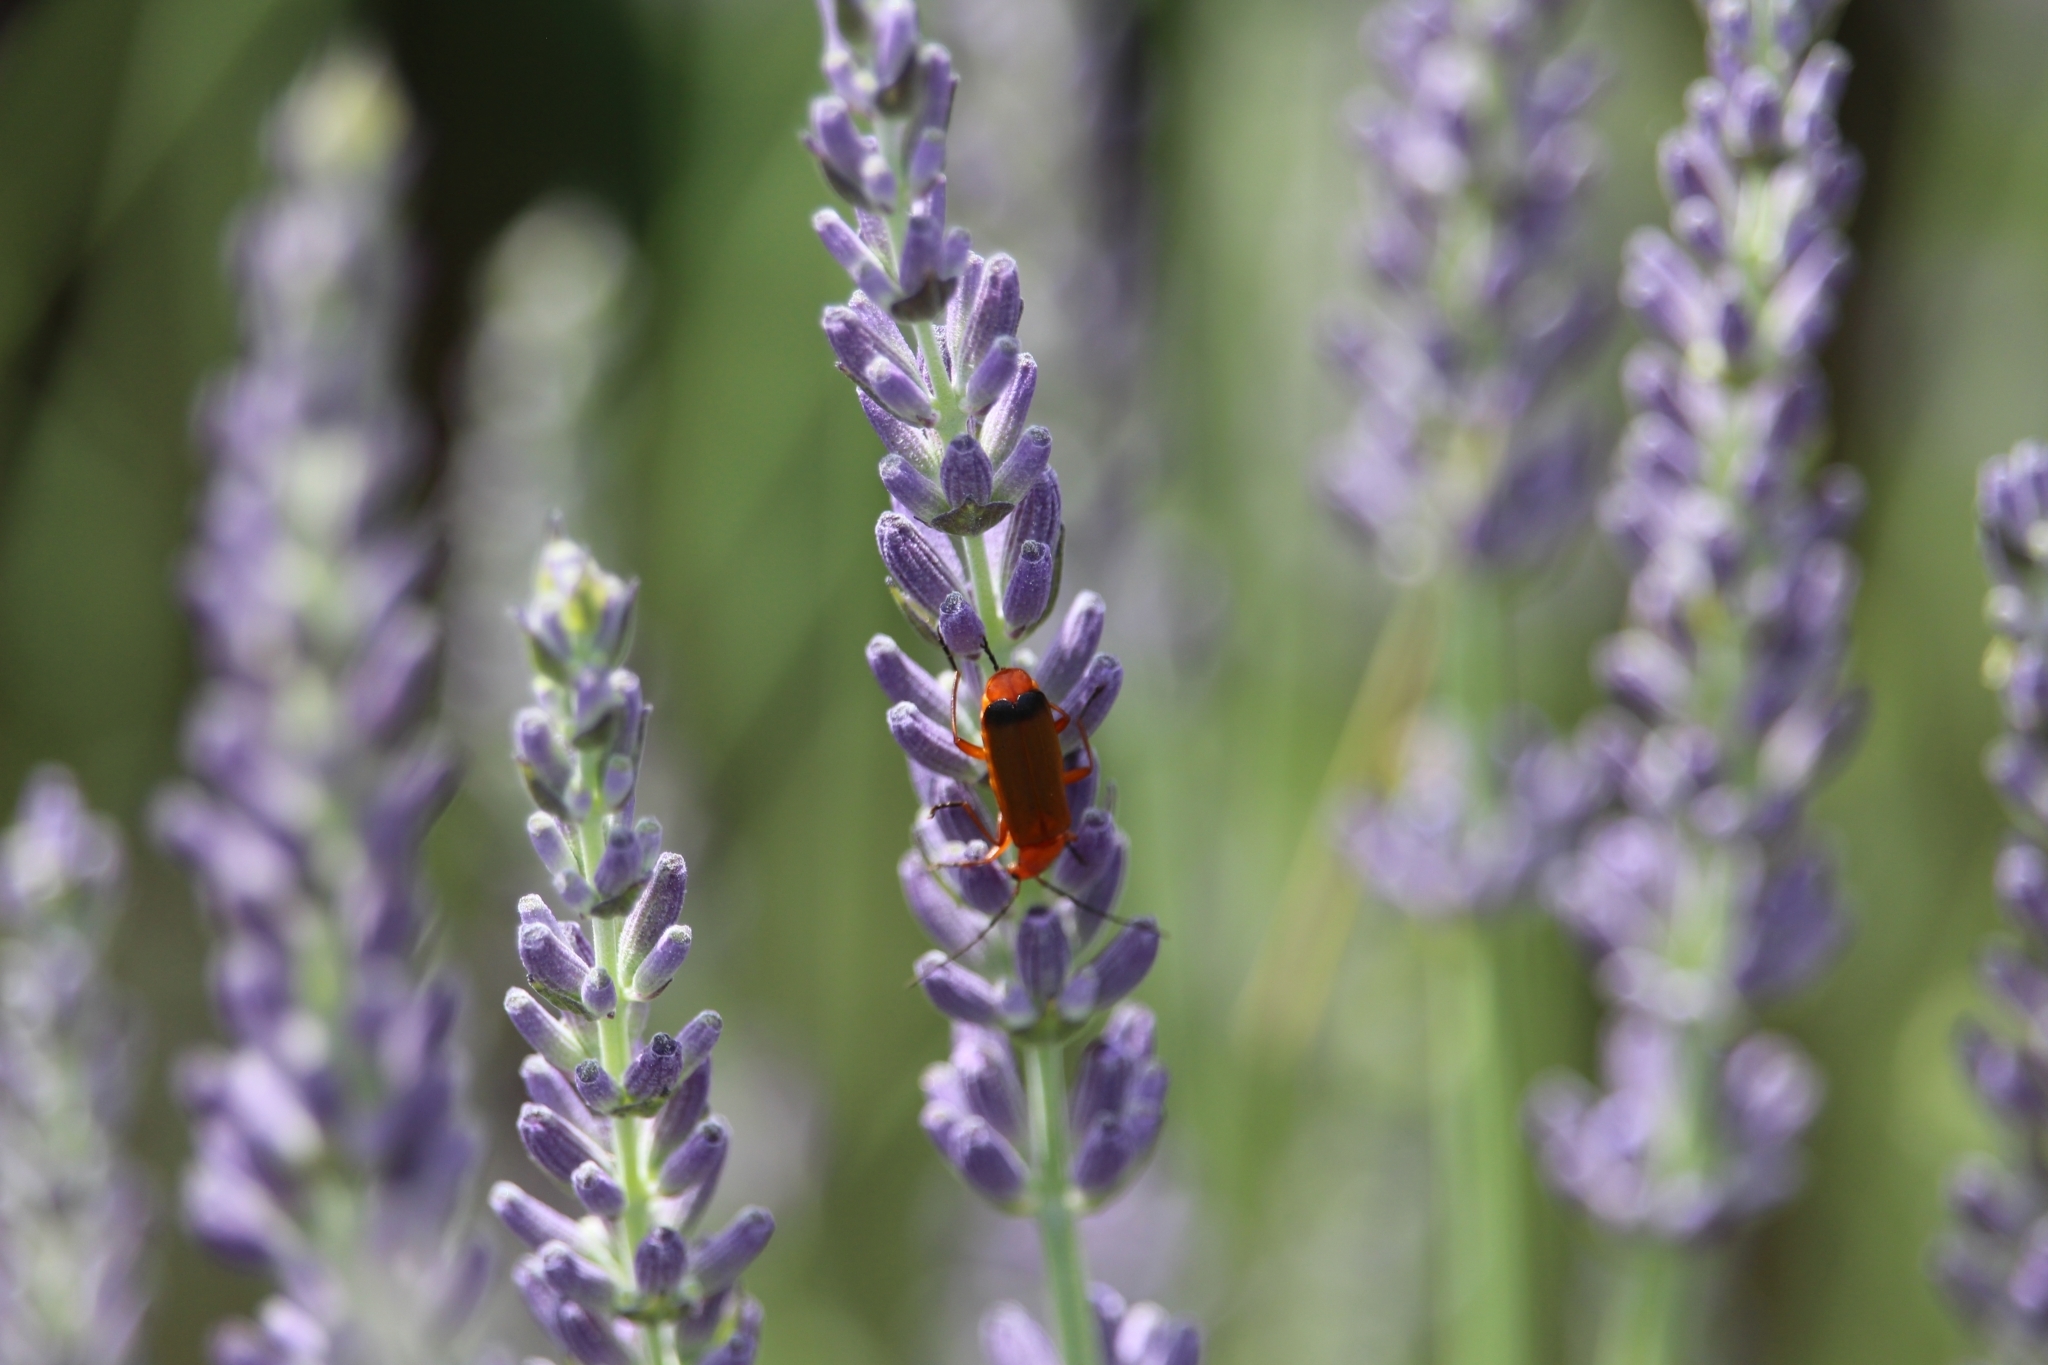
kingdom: Animalia
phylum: Arthropoda
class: Insecta
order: Coleoptera
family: Cantharidae
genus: Rhagonycha
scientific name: Rhagonycha fulva
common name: Common red soldier beetle
